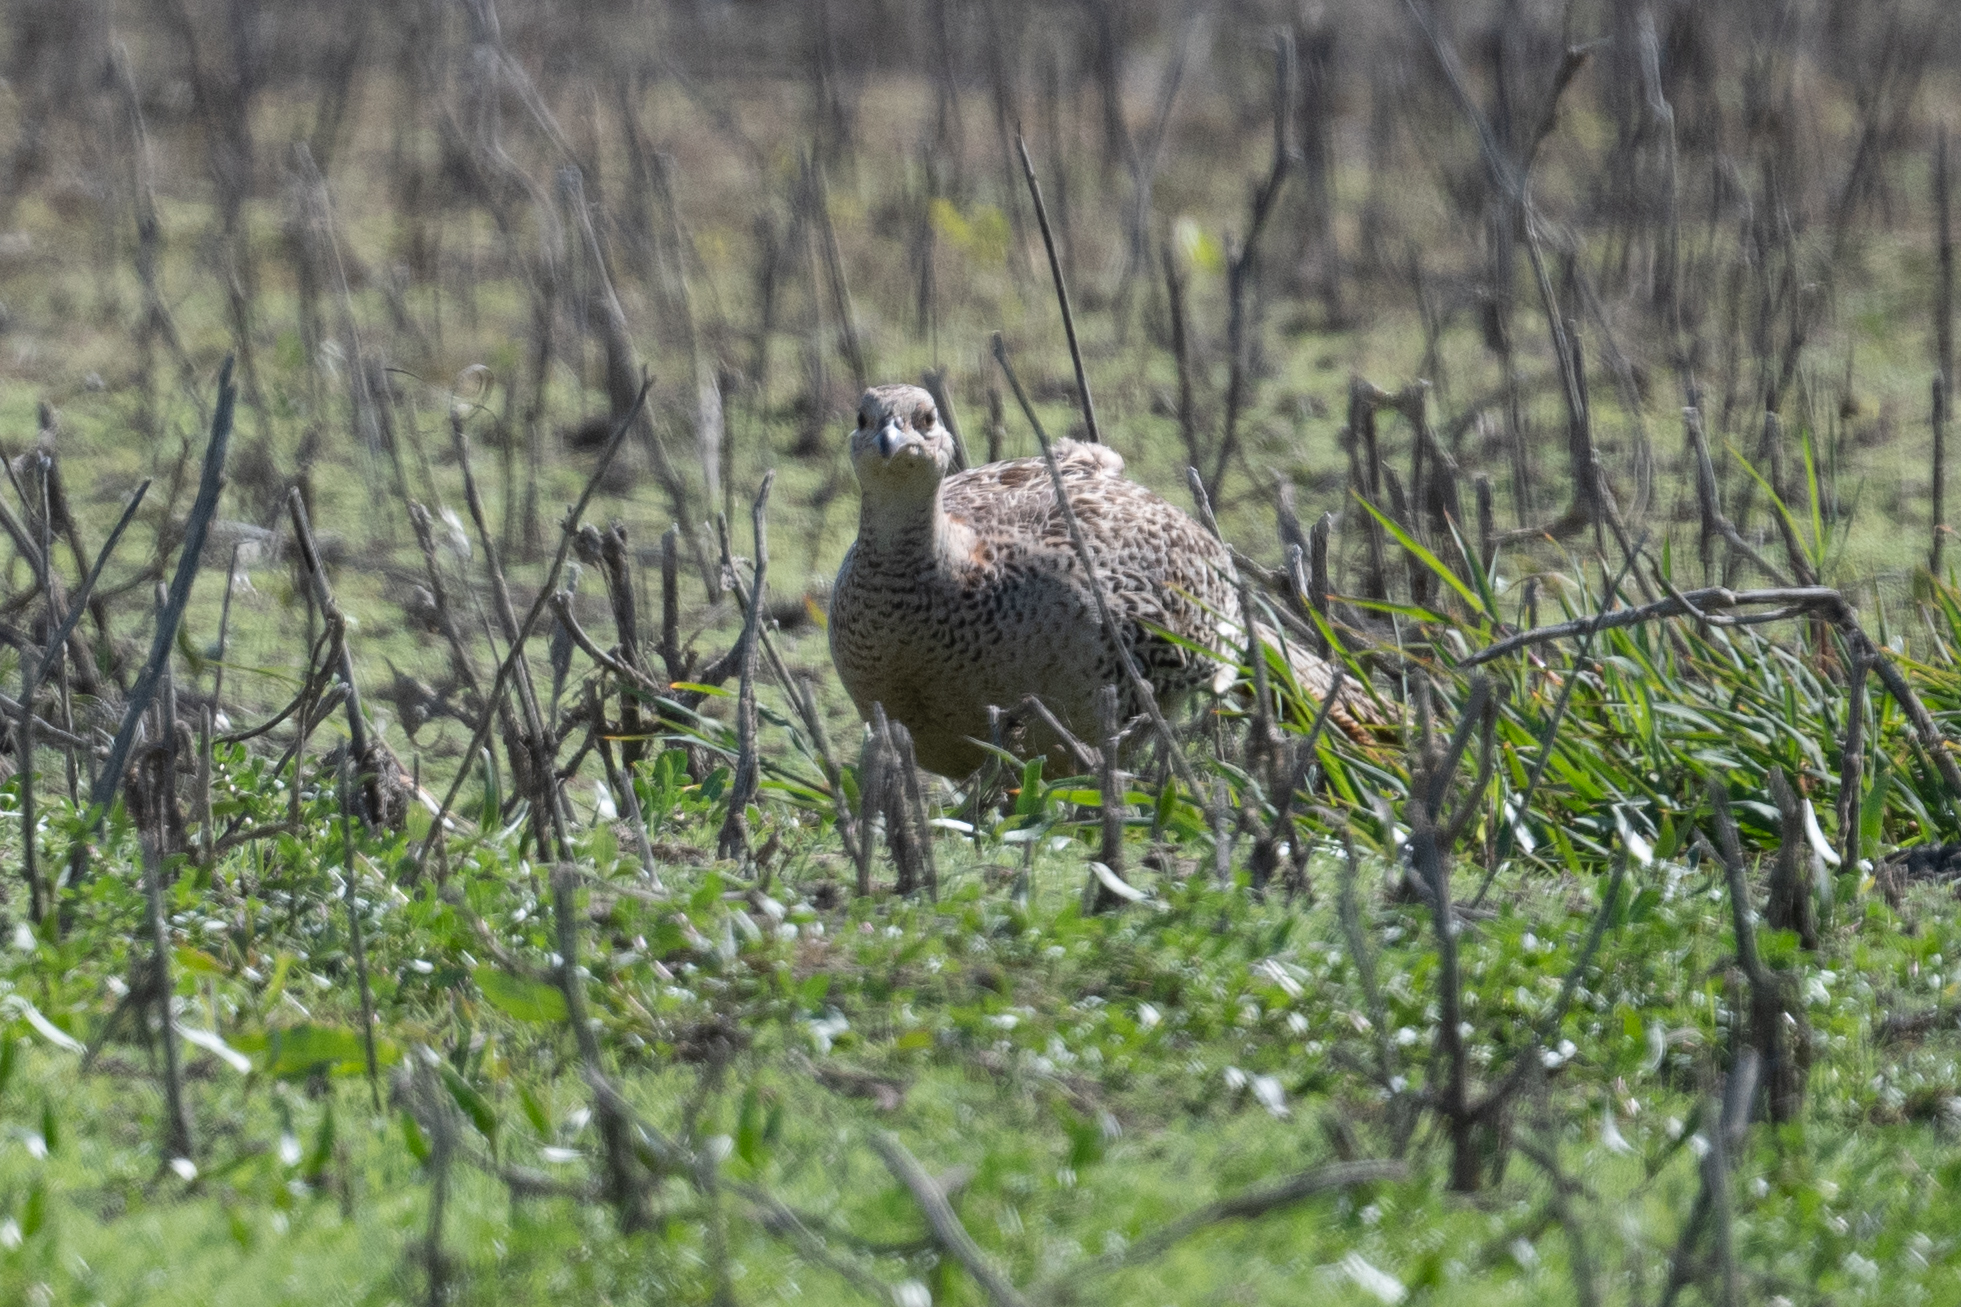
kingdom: Animalia
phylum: Chordata
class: Aves
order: Galliformes
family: Phasianidae
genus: Phasianus
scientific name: Phasianus colchicus
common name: Common pheasant
